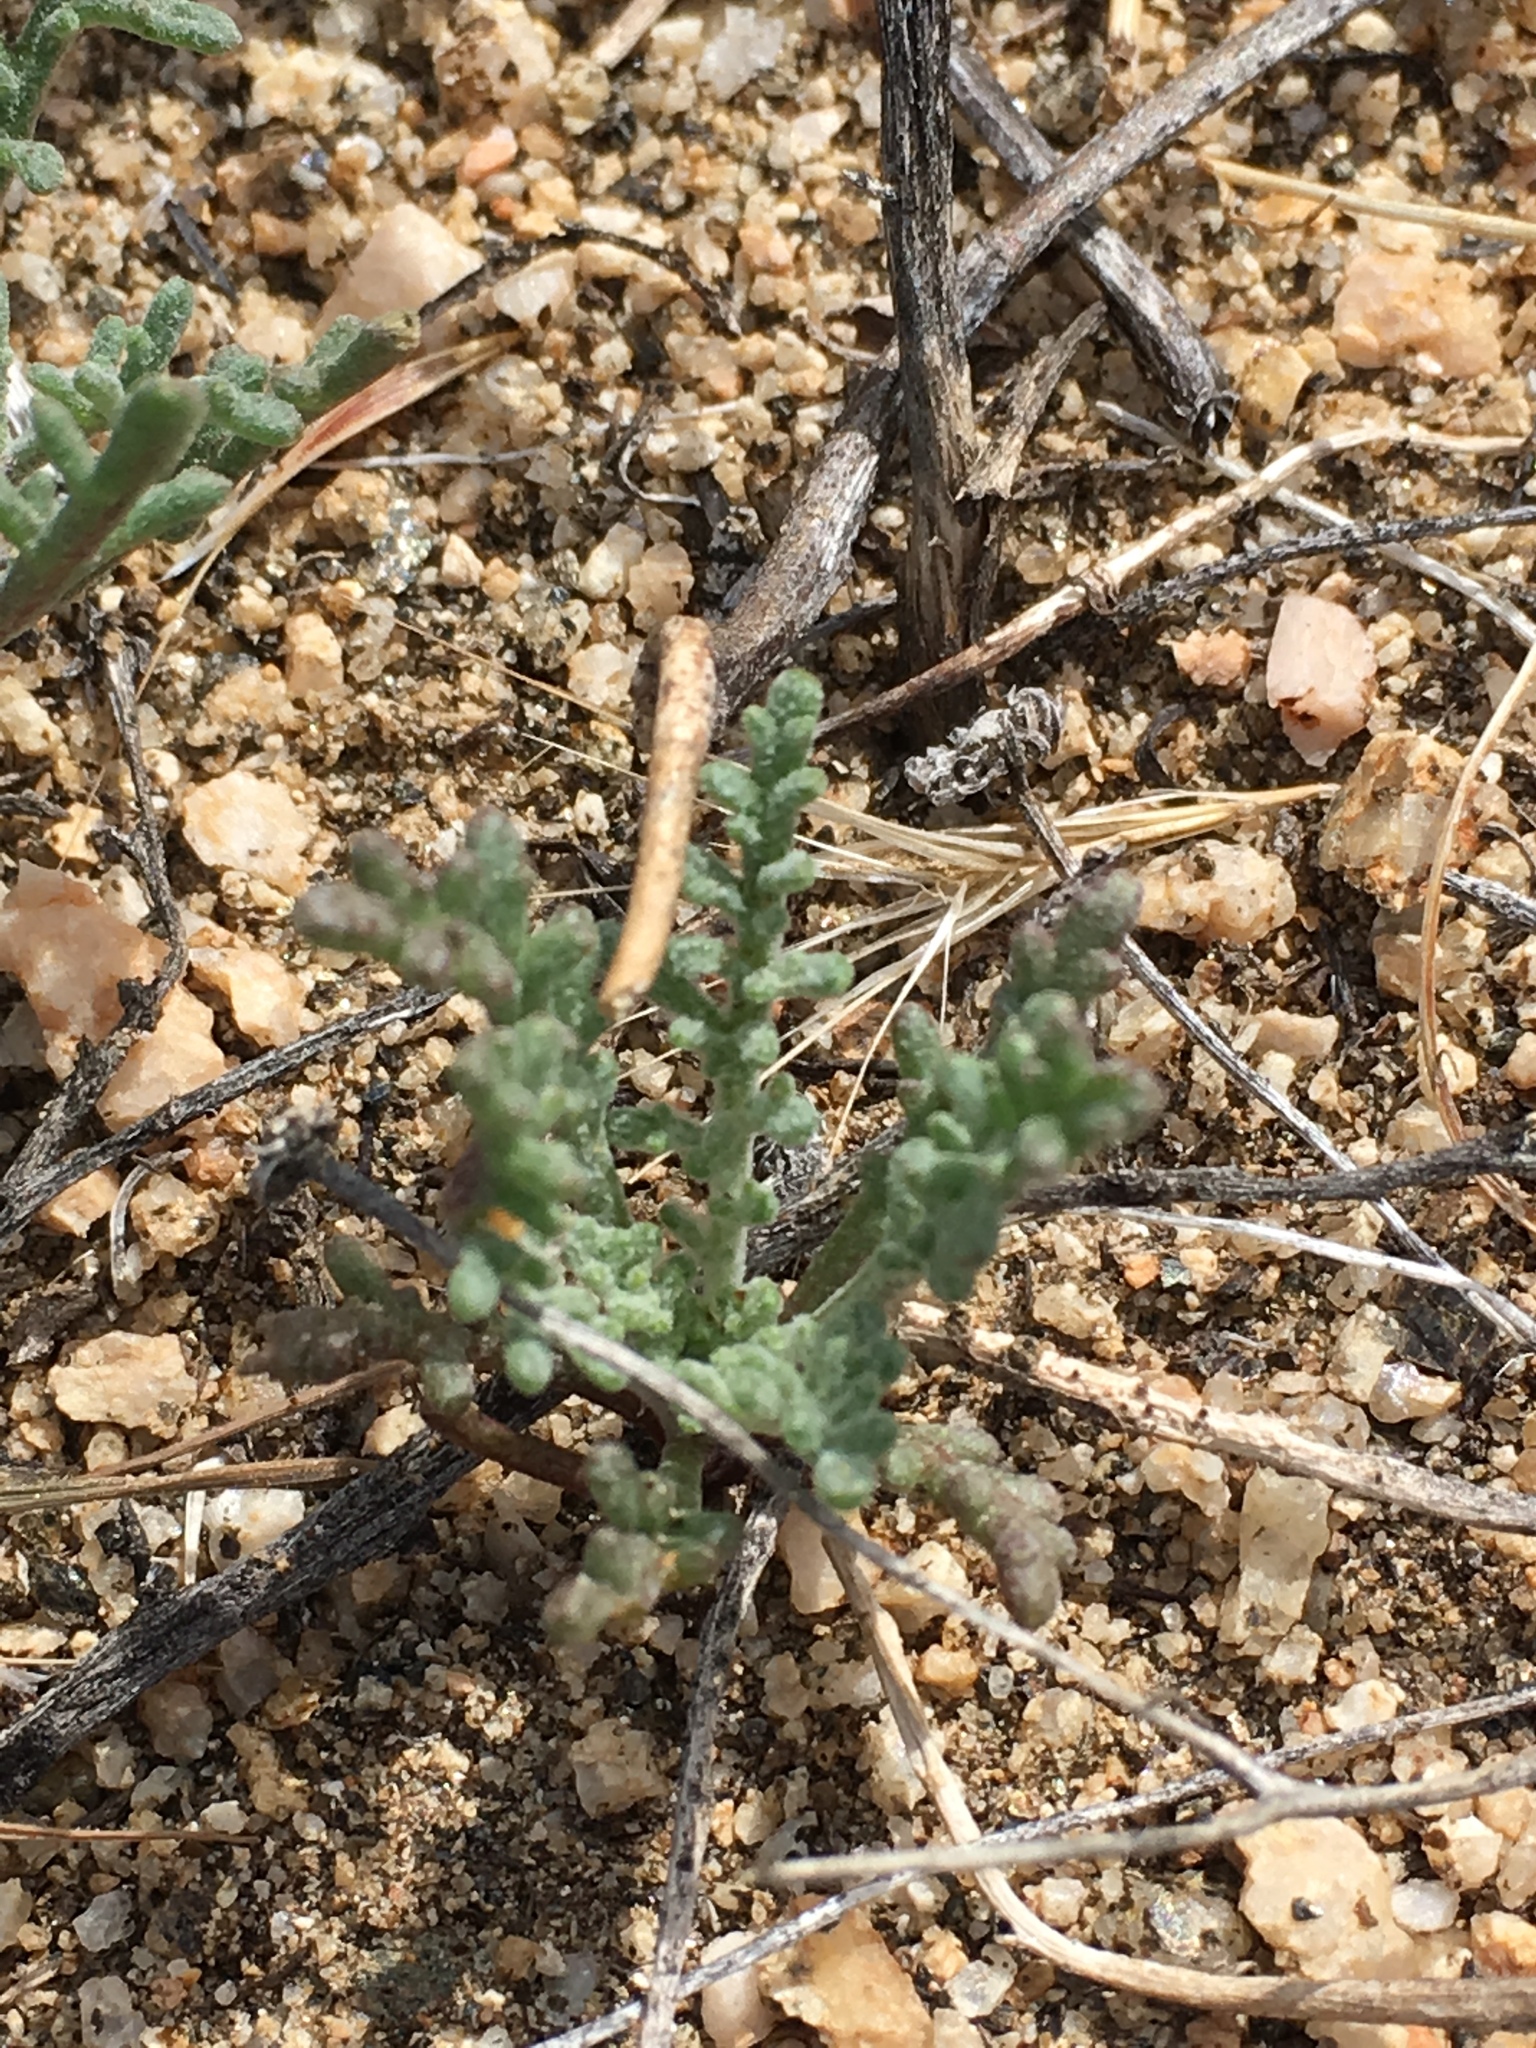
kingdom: Plantae
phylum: Tracheophyta
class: Magnoliopsida
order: Asterales
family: Asteraceae
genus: Anisocoma
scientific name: Anisocoma acaulis
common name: Scalebud
